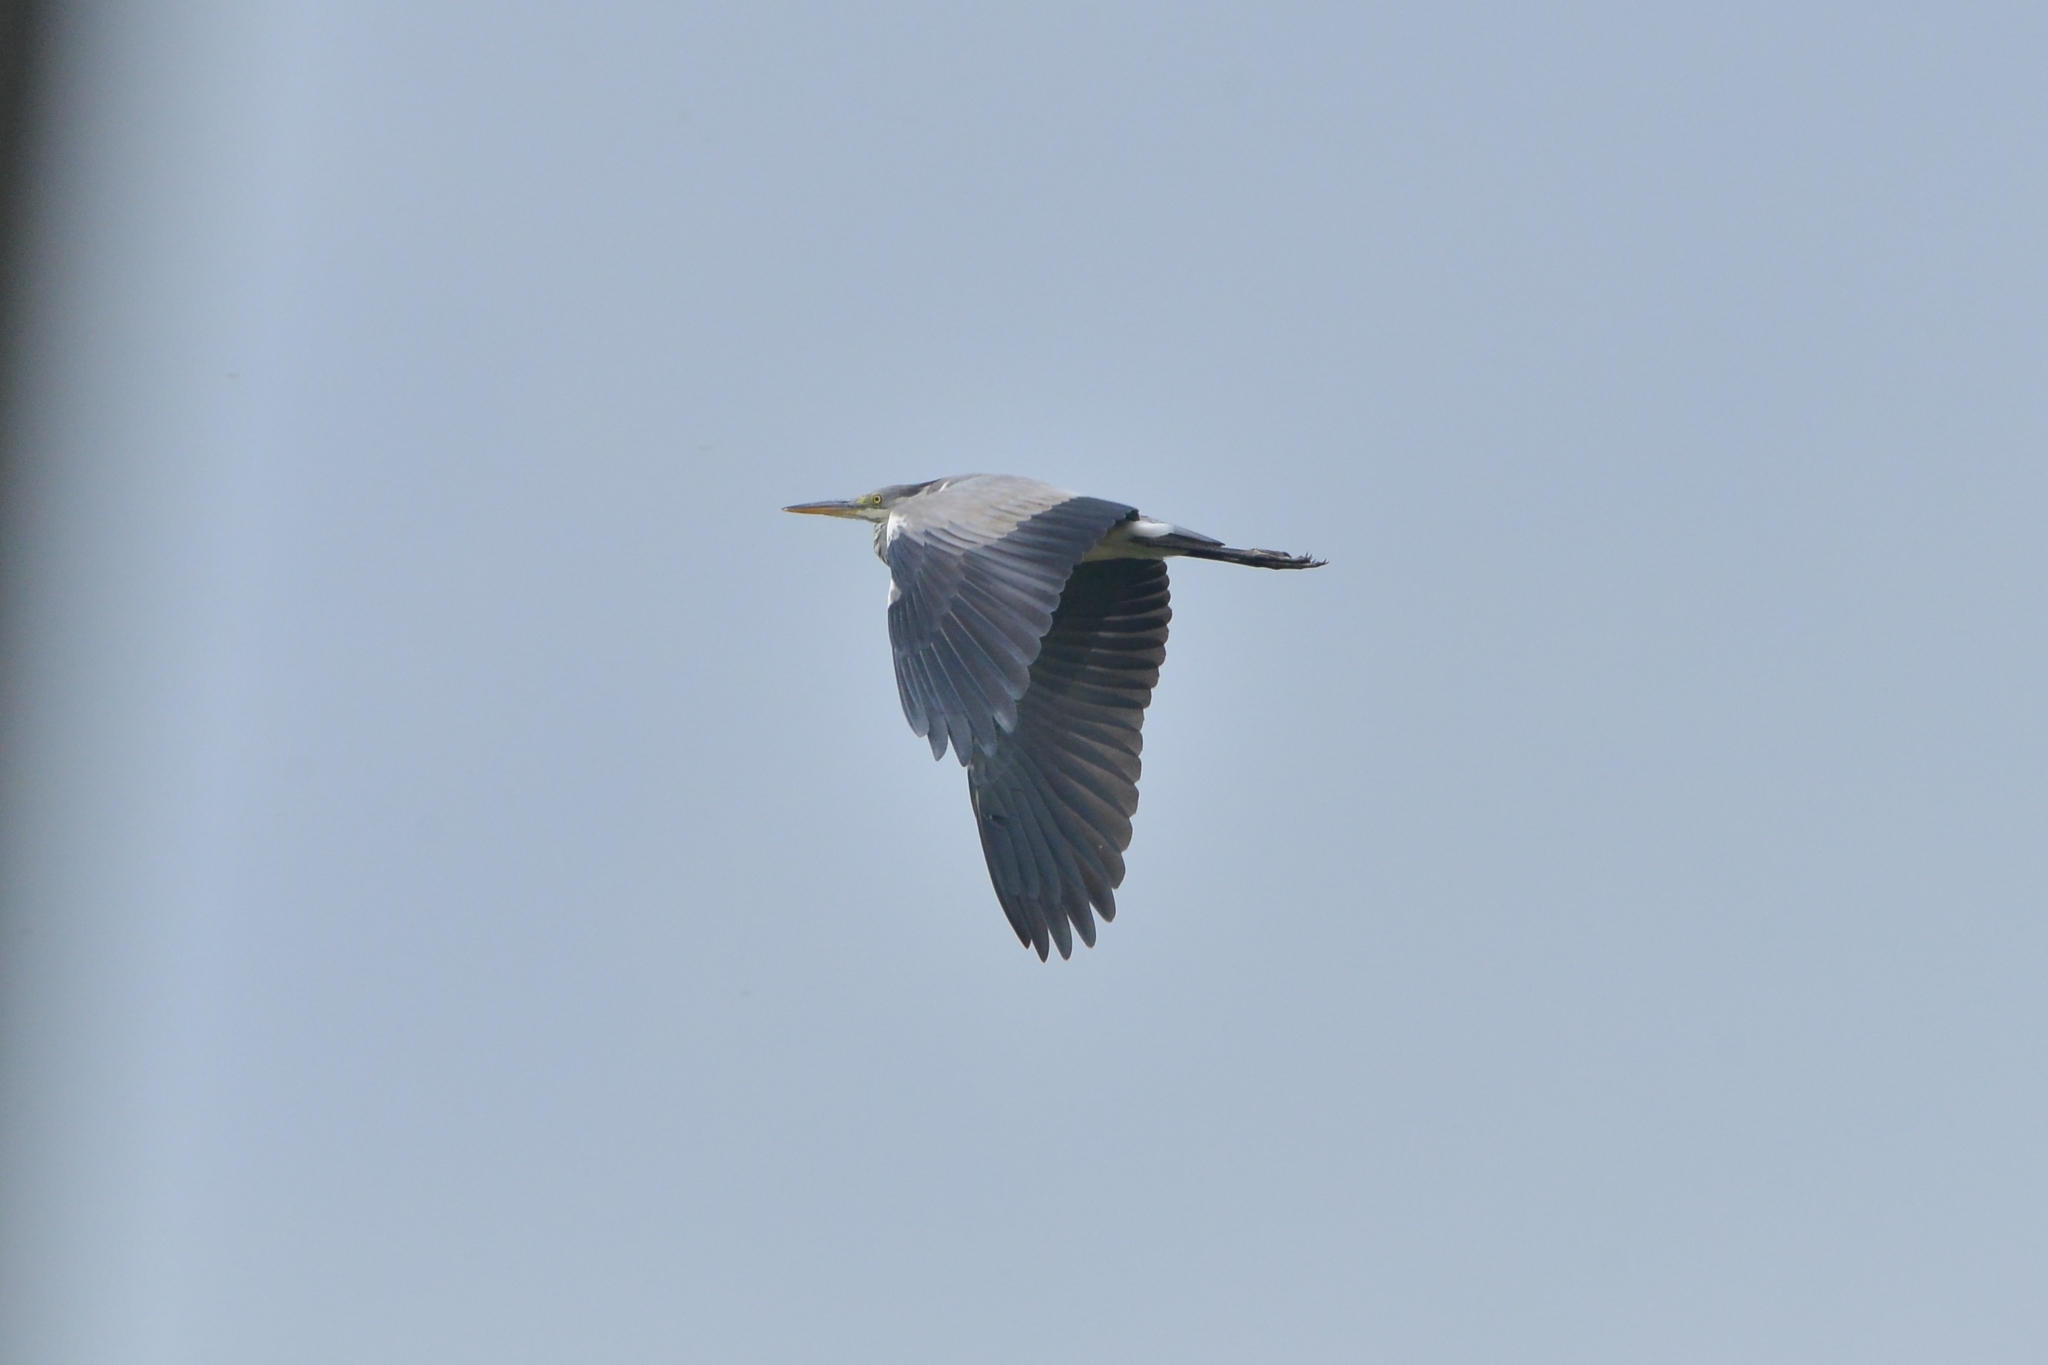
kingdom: Animalia
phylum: Chordata
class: Aves
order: Pelecaniformes
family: Ardeidae
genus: Ardea
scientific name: Ardea cinerea
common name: Grey heron
